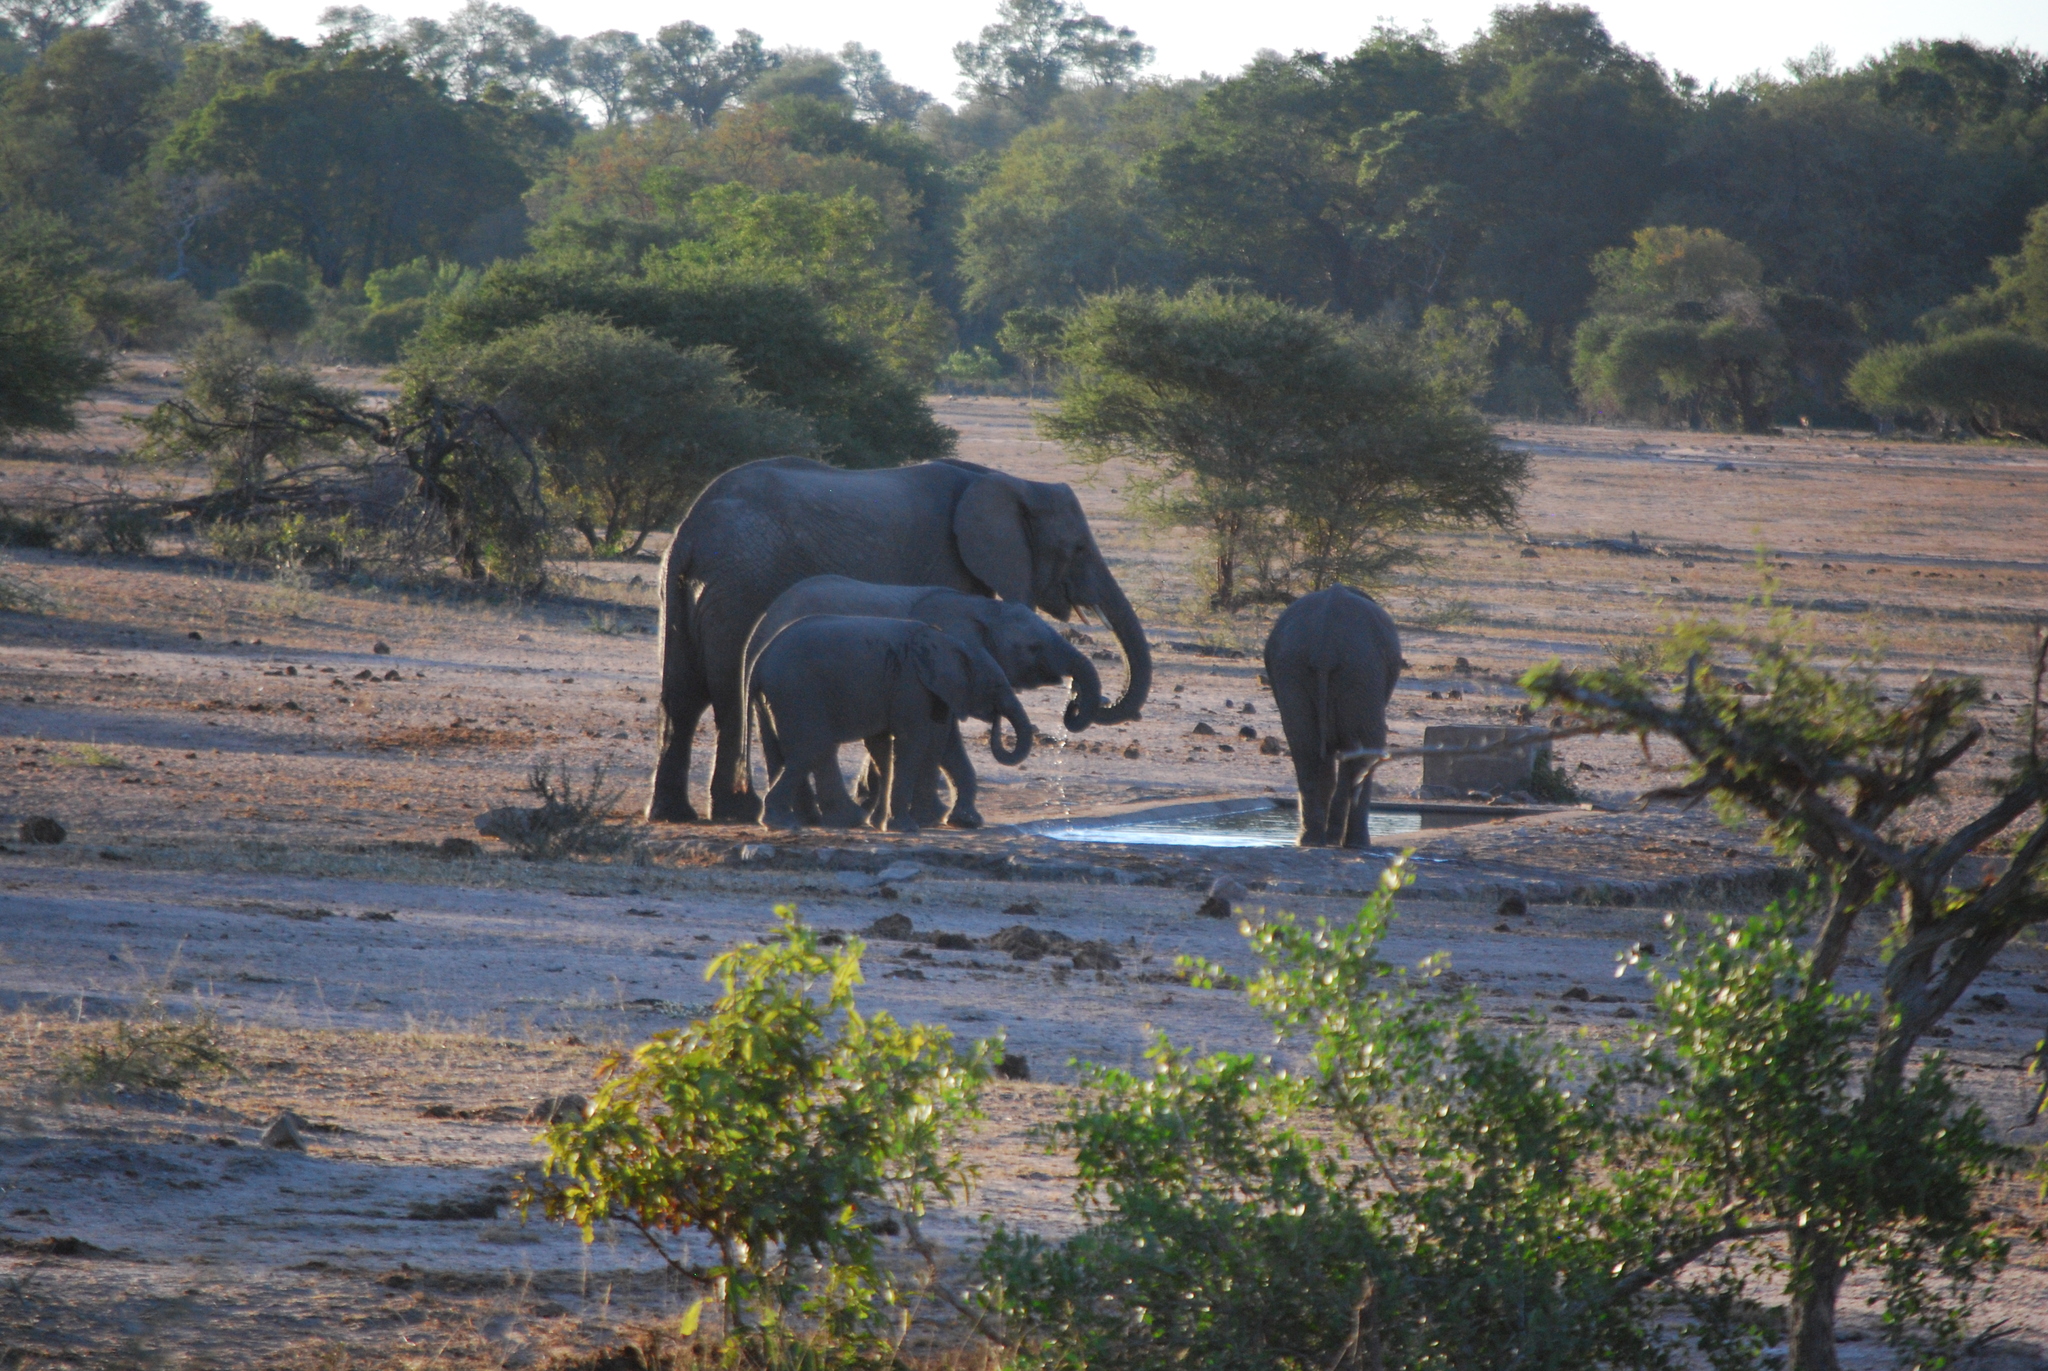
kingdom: Animalia
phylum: Chordata
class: Mammalia
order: Proboscidea
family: Elephantidae
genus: Loxodonta
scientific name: Loxodonta africana
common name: African elephant
